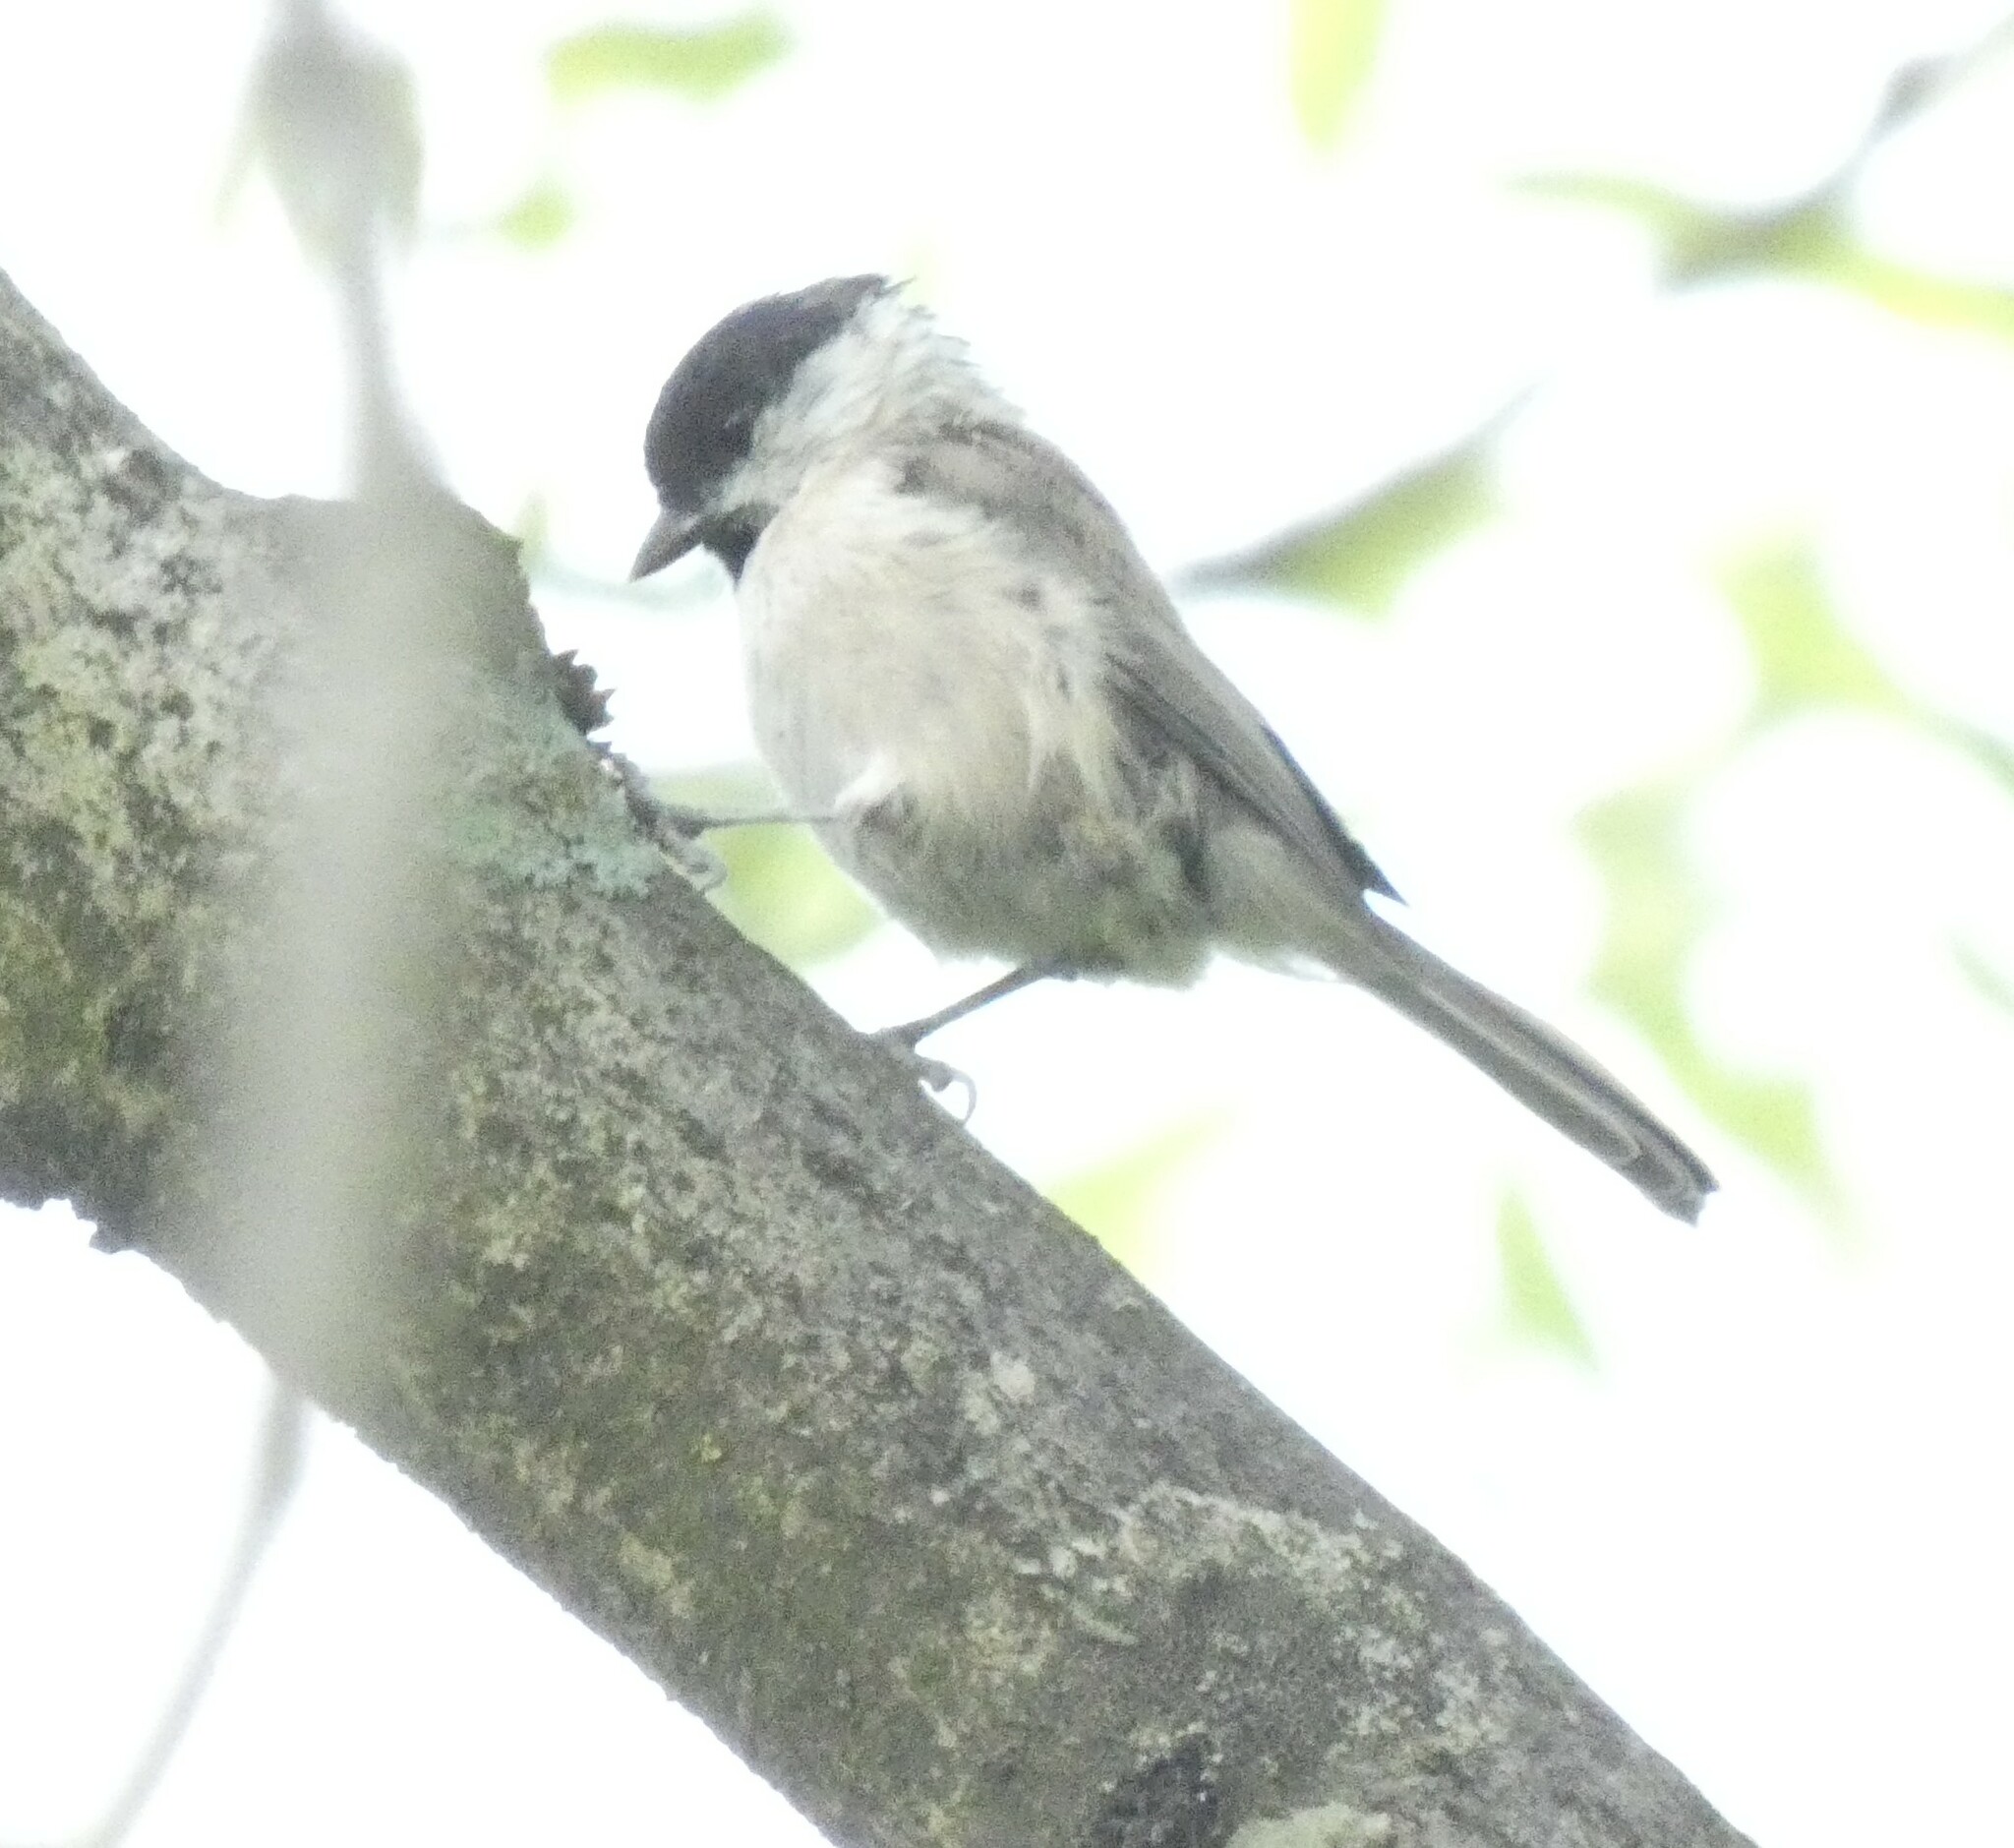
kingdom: Animalia
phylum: Chordata
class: Aves
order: Passeriformes
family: Paridae
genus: Poecile
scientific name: Poecile palustris
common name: Marsh tit
